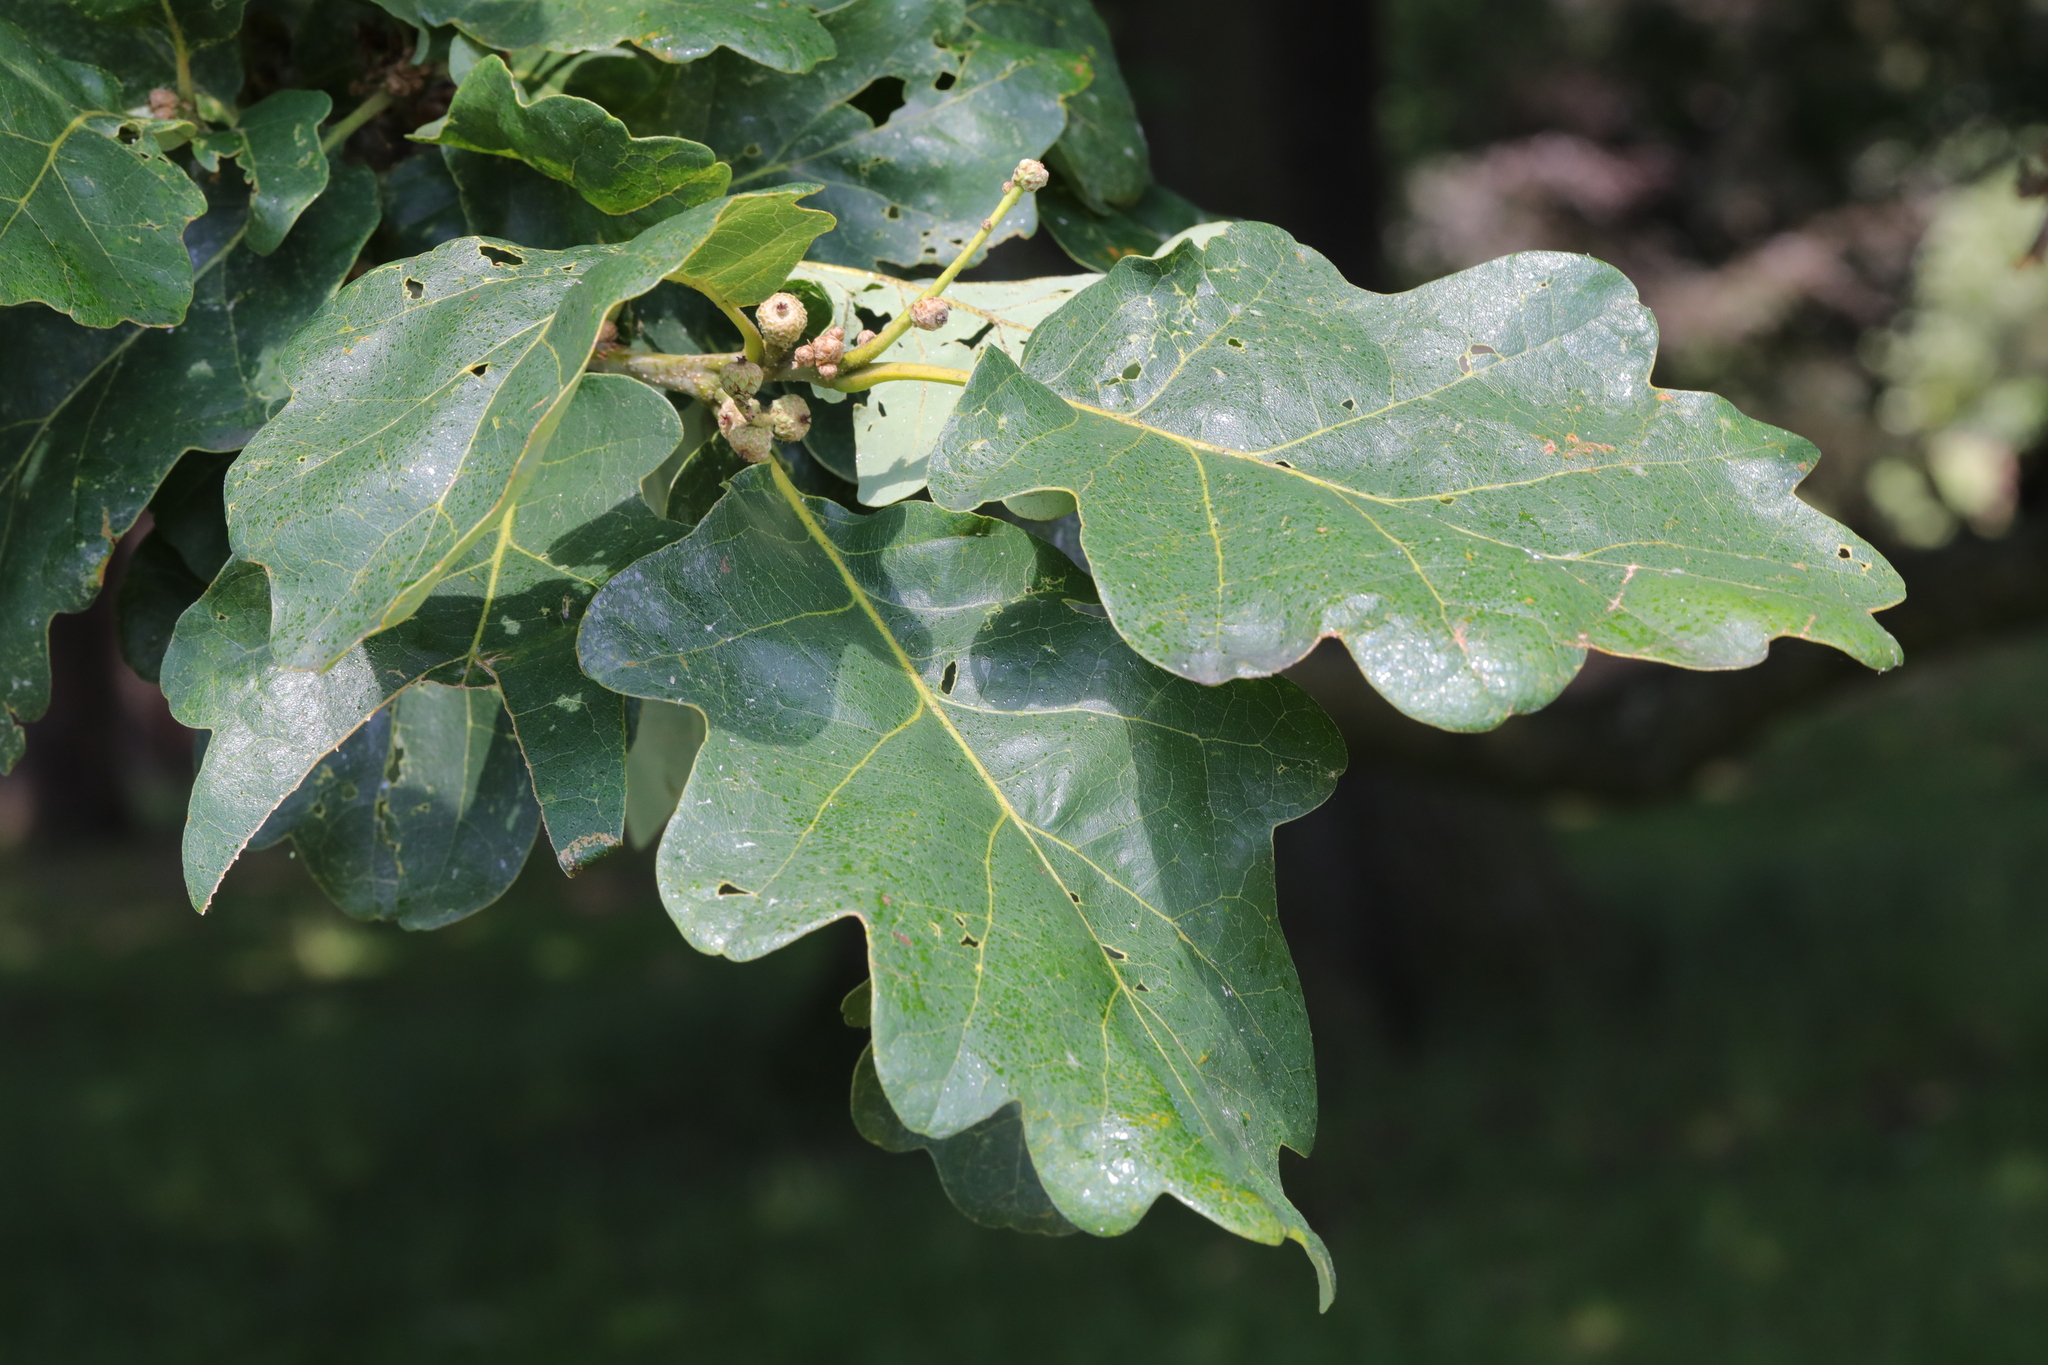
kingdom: Plantae
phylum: Tracheophyta
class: Magnoliopsida
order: Fagales
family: Fagaceae
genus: Quercus
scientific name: Quercus robur
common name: Pedunculate oak
